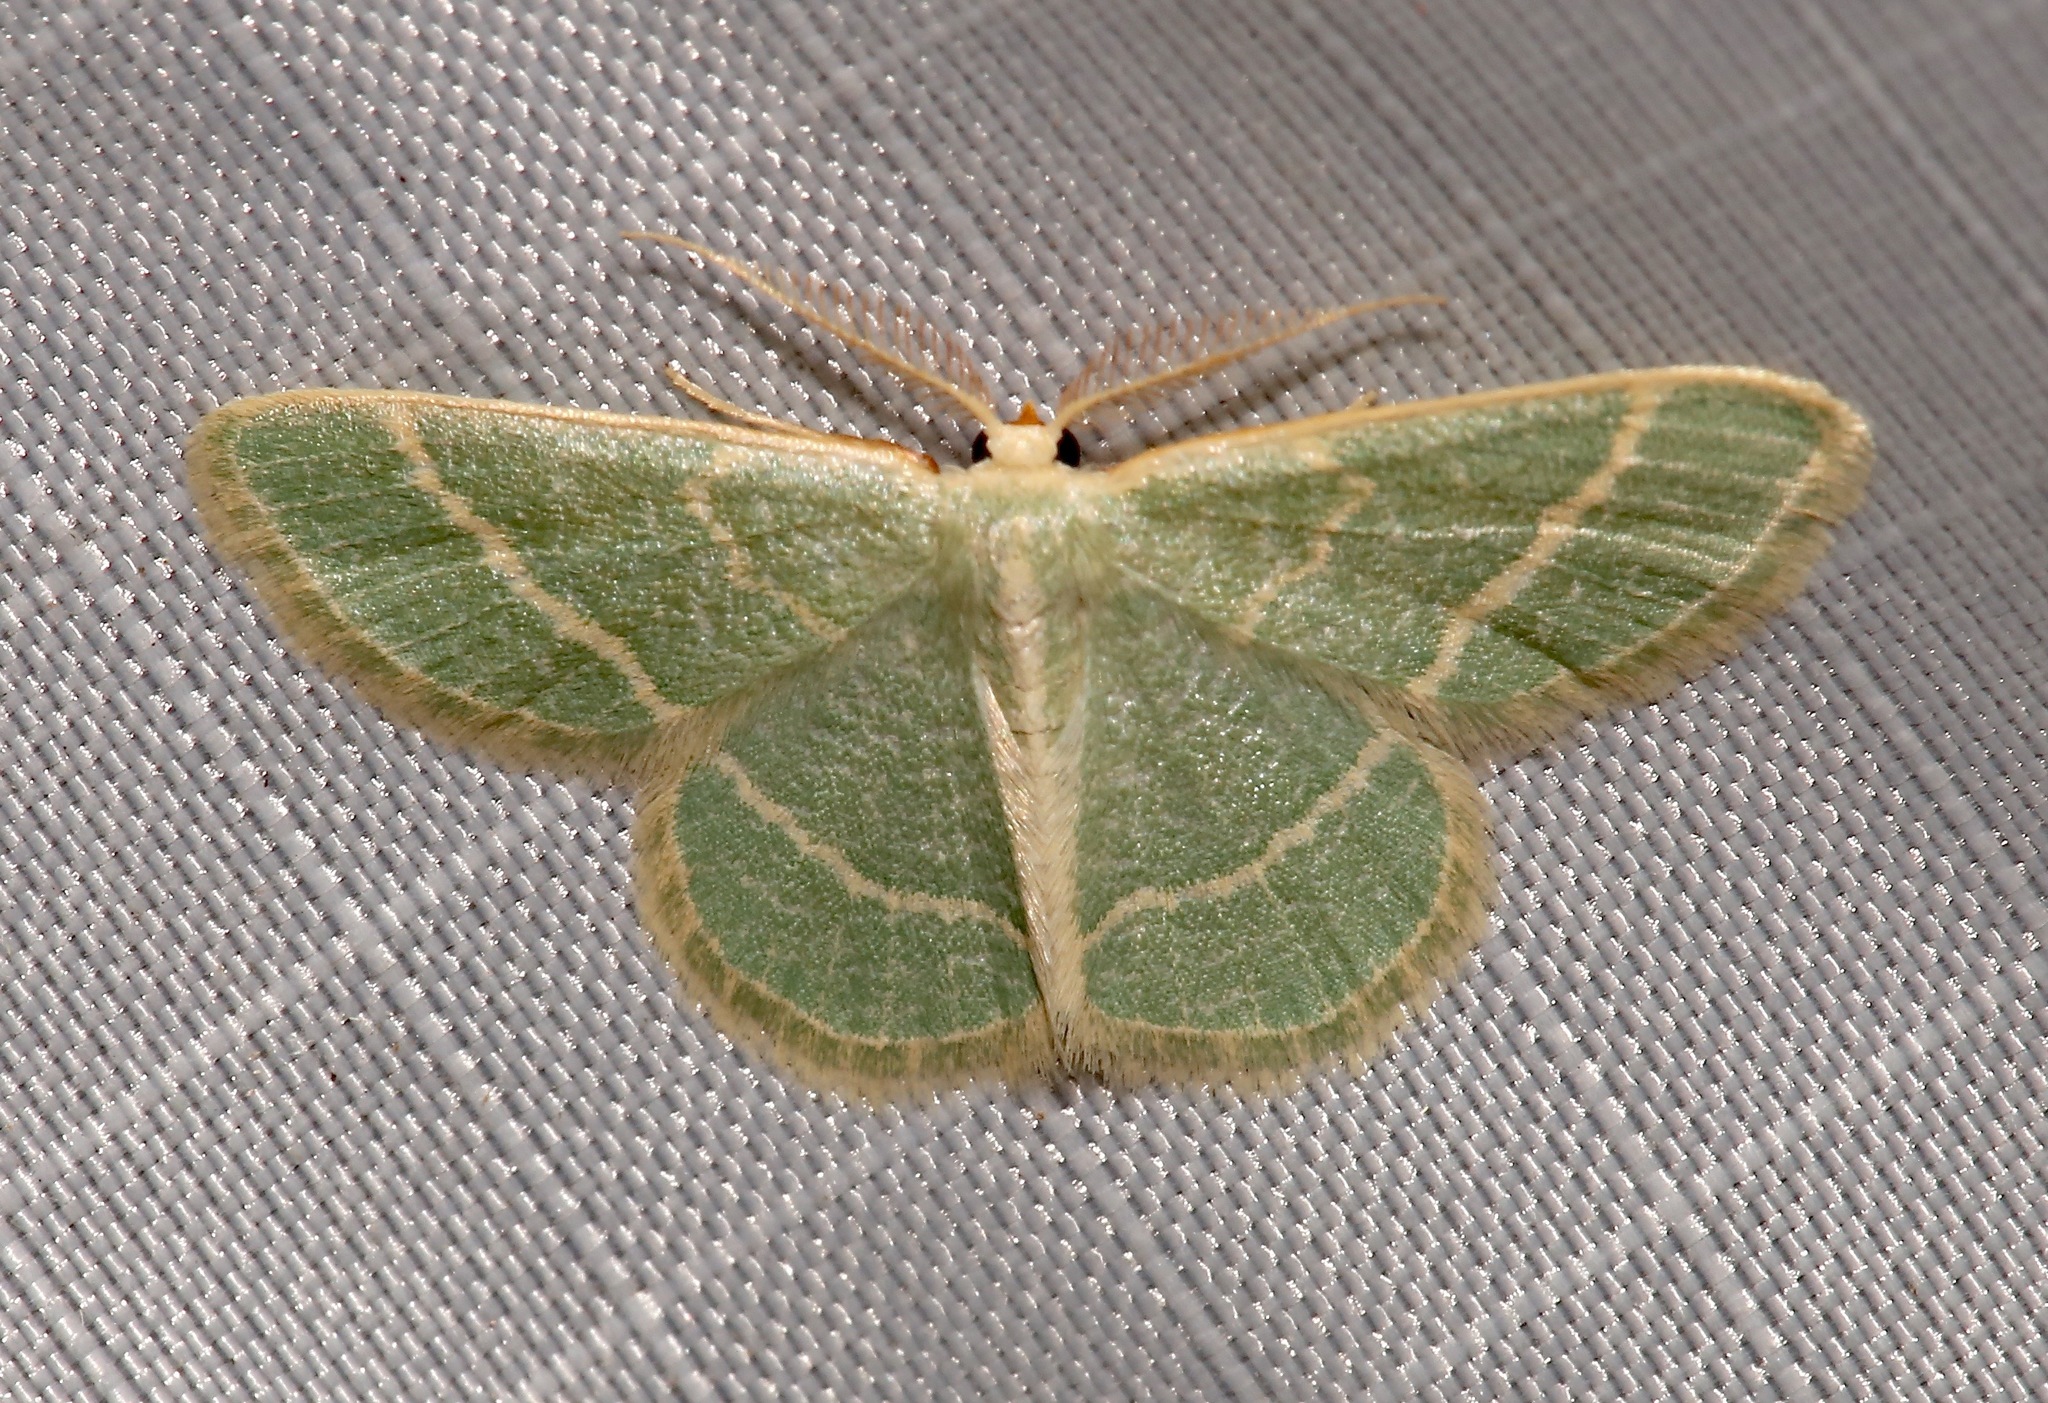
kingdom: Animalia
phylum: Arthropoda
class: Insecta
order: Lepidoptera
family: Geometridae
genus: Chlorochlamys
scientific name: Chlorochlamys chloroleucaria
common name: Blackberry looper
